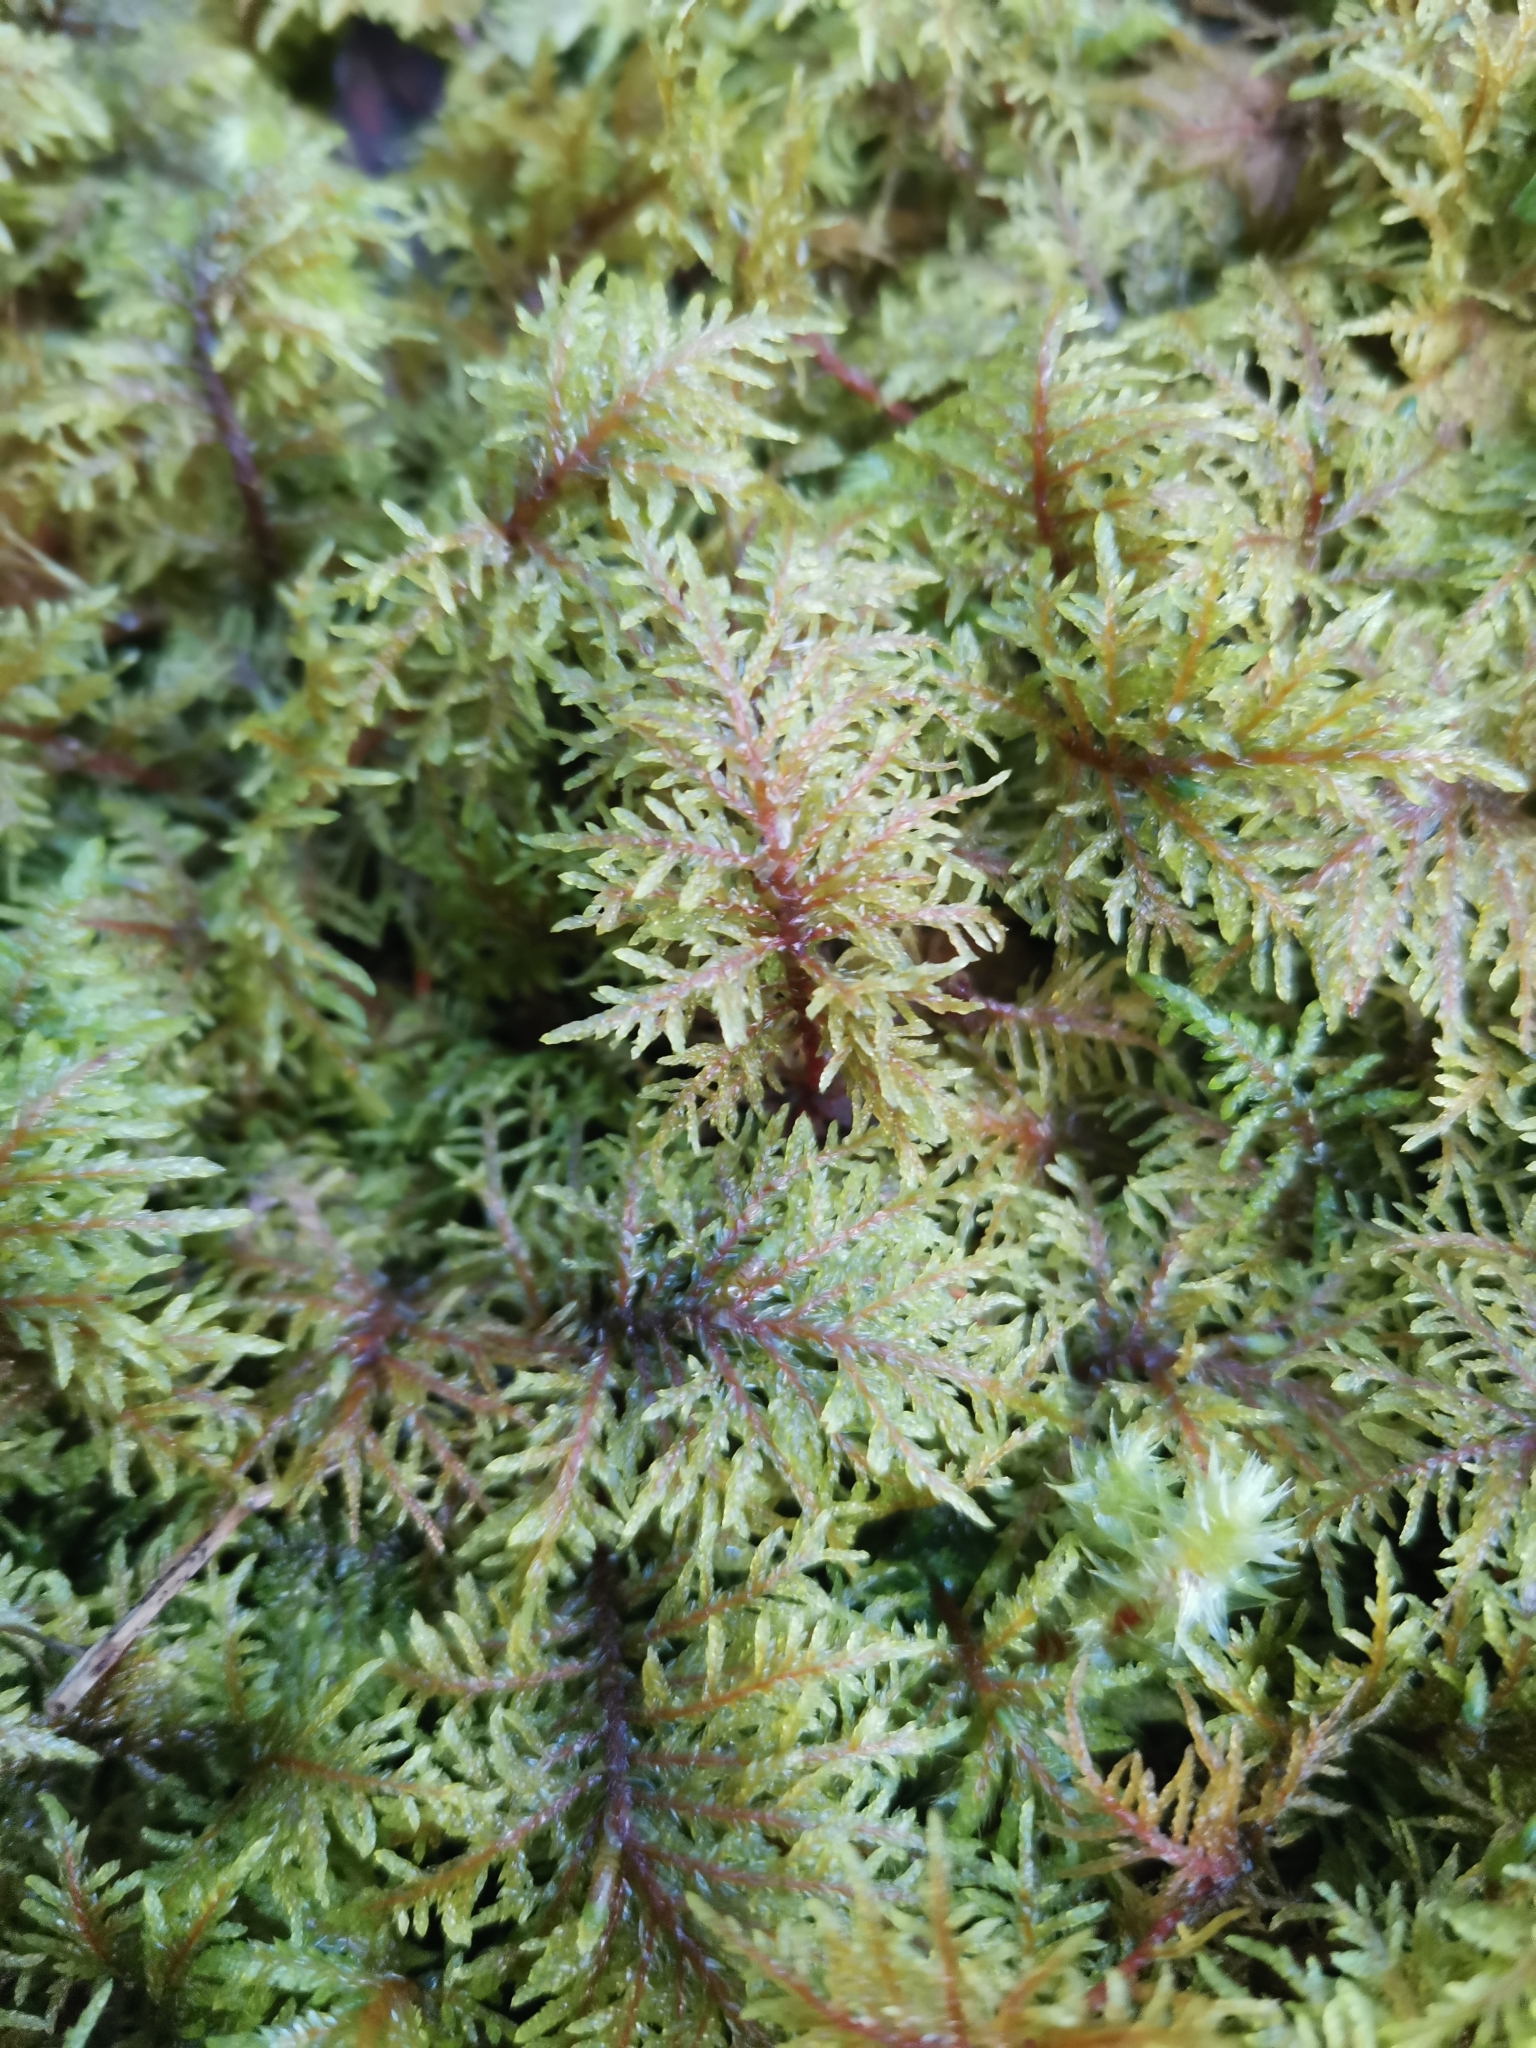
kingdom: Plantae
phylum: Bryophyta
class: Bryopsida
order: Hypnales
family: Hylocomiaceae
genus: Hylocomium
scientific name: Hylocomium splendens
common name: Stairstep moss
